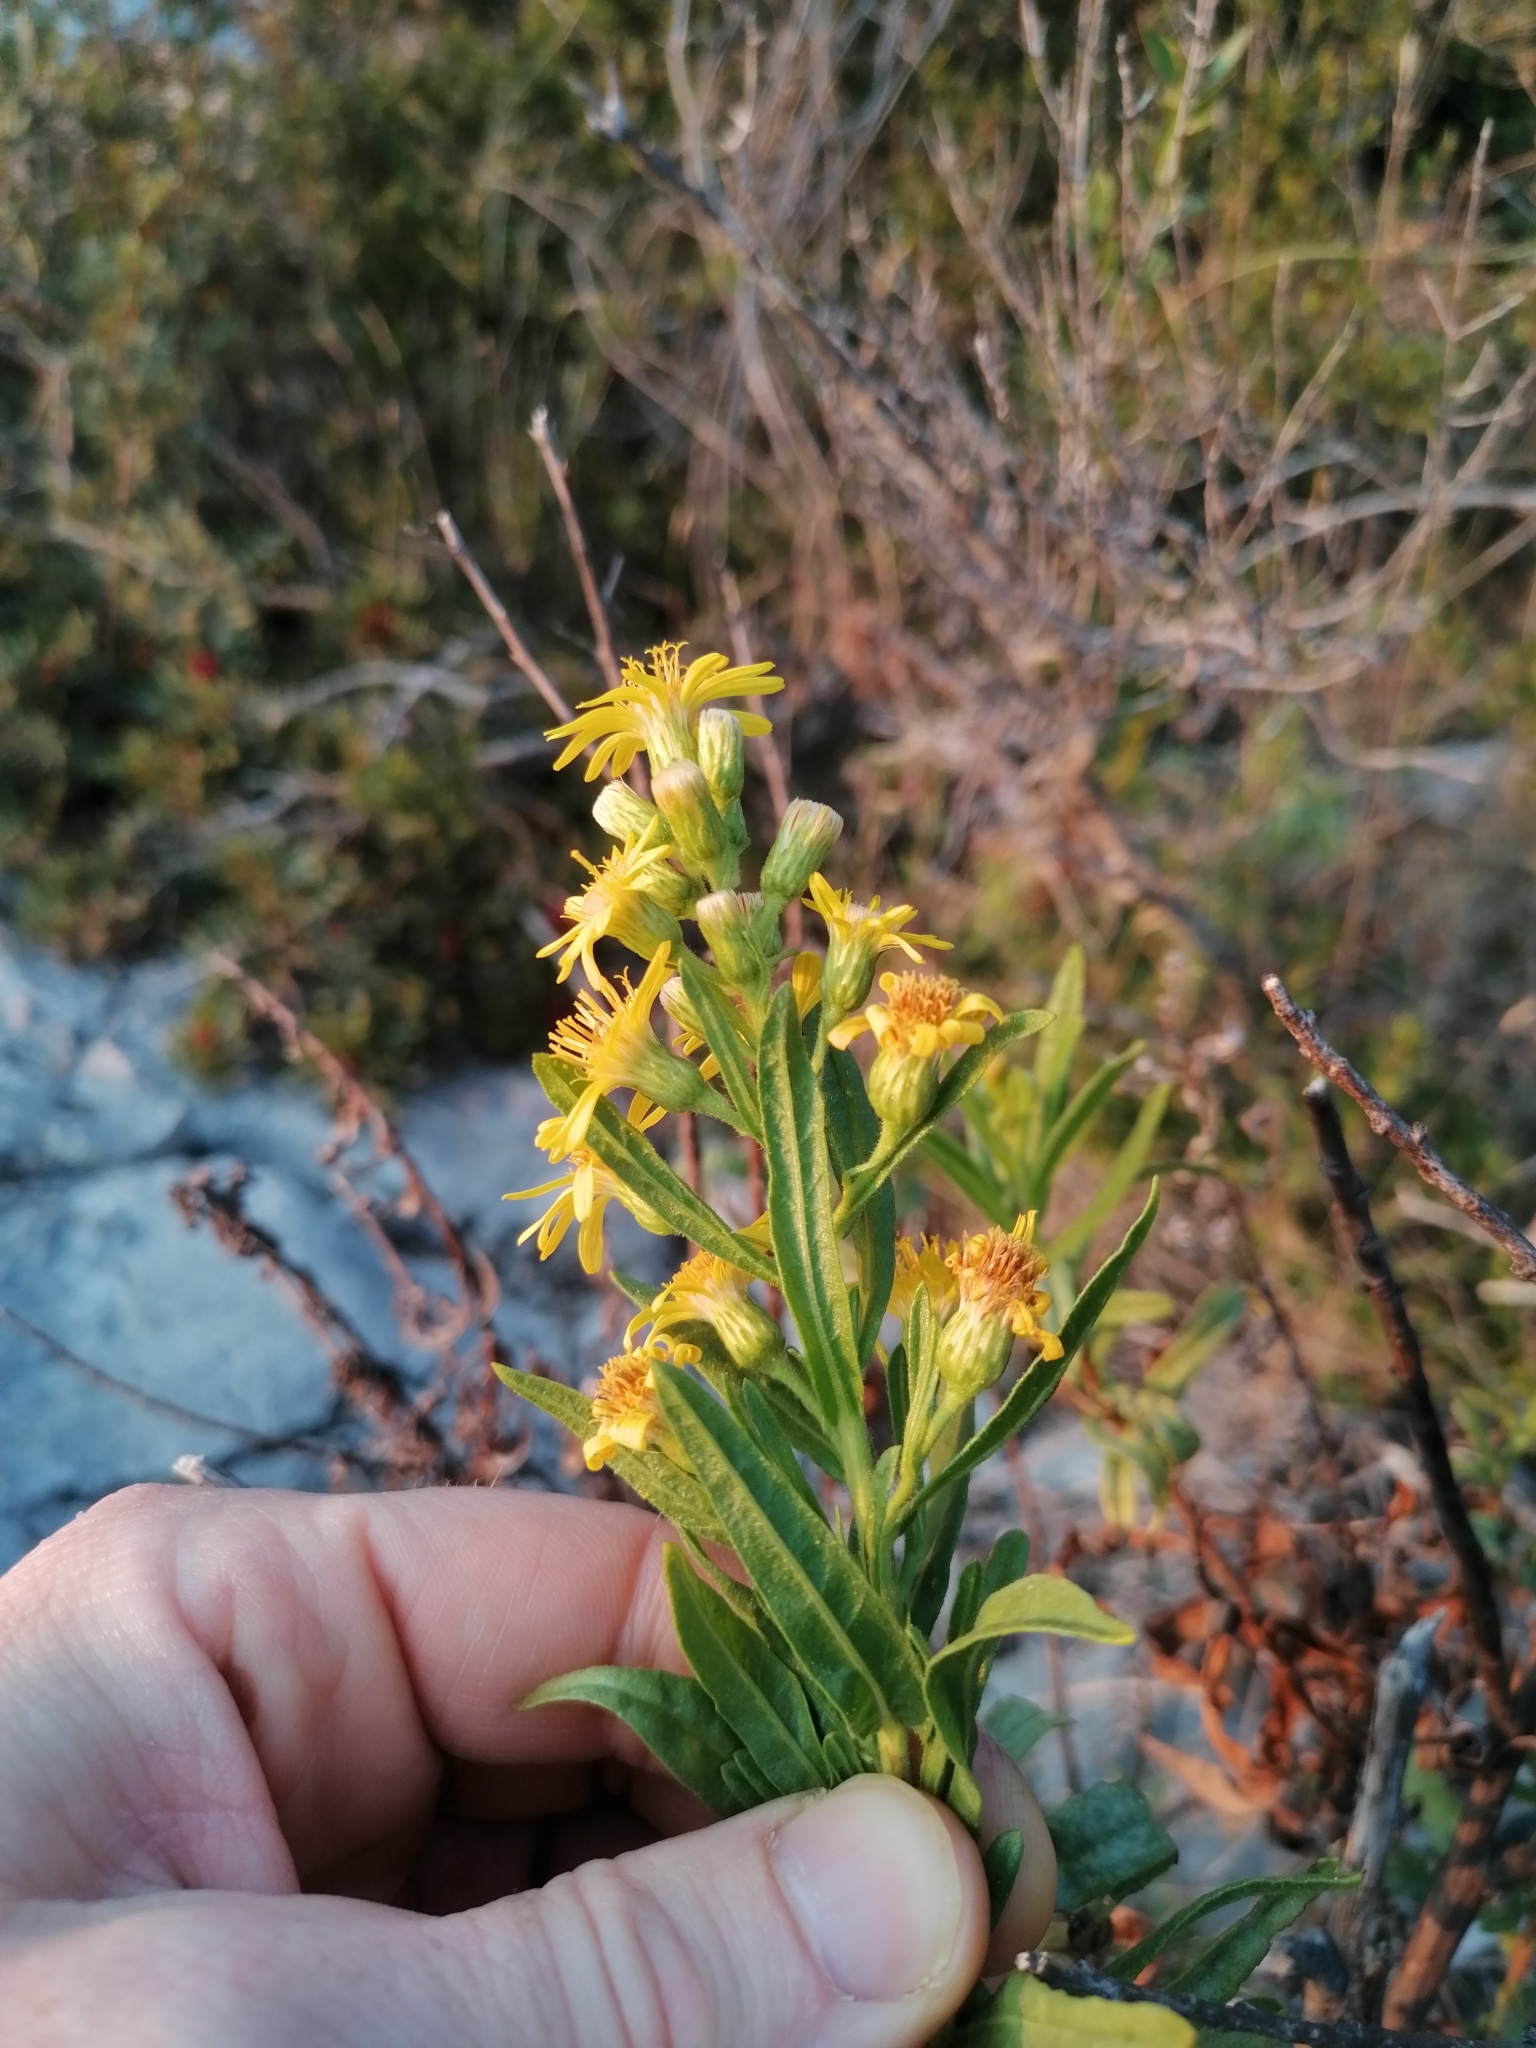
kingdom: Plantae
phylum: Tracheophyta
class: Magnoliopsida
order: Asterales
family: Asteraceae
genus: Dittrichia
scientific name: Dittrichia viscosa
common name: Woody fleabane
